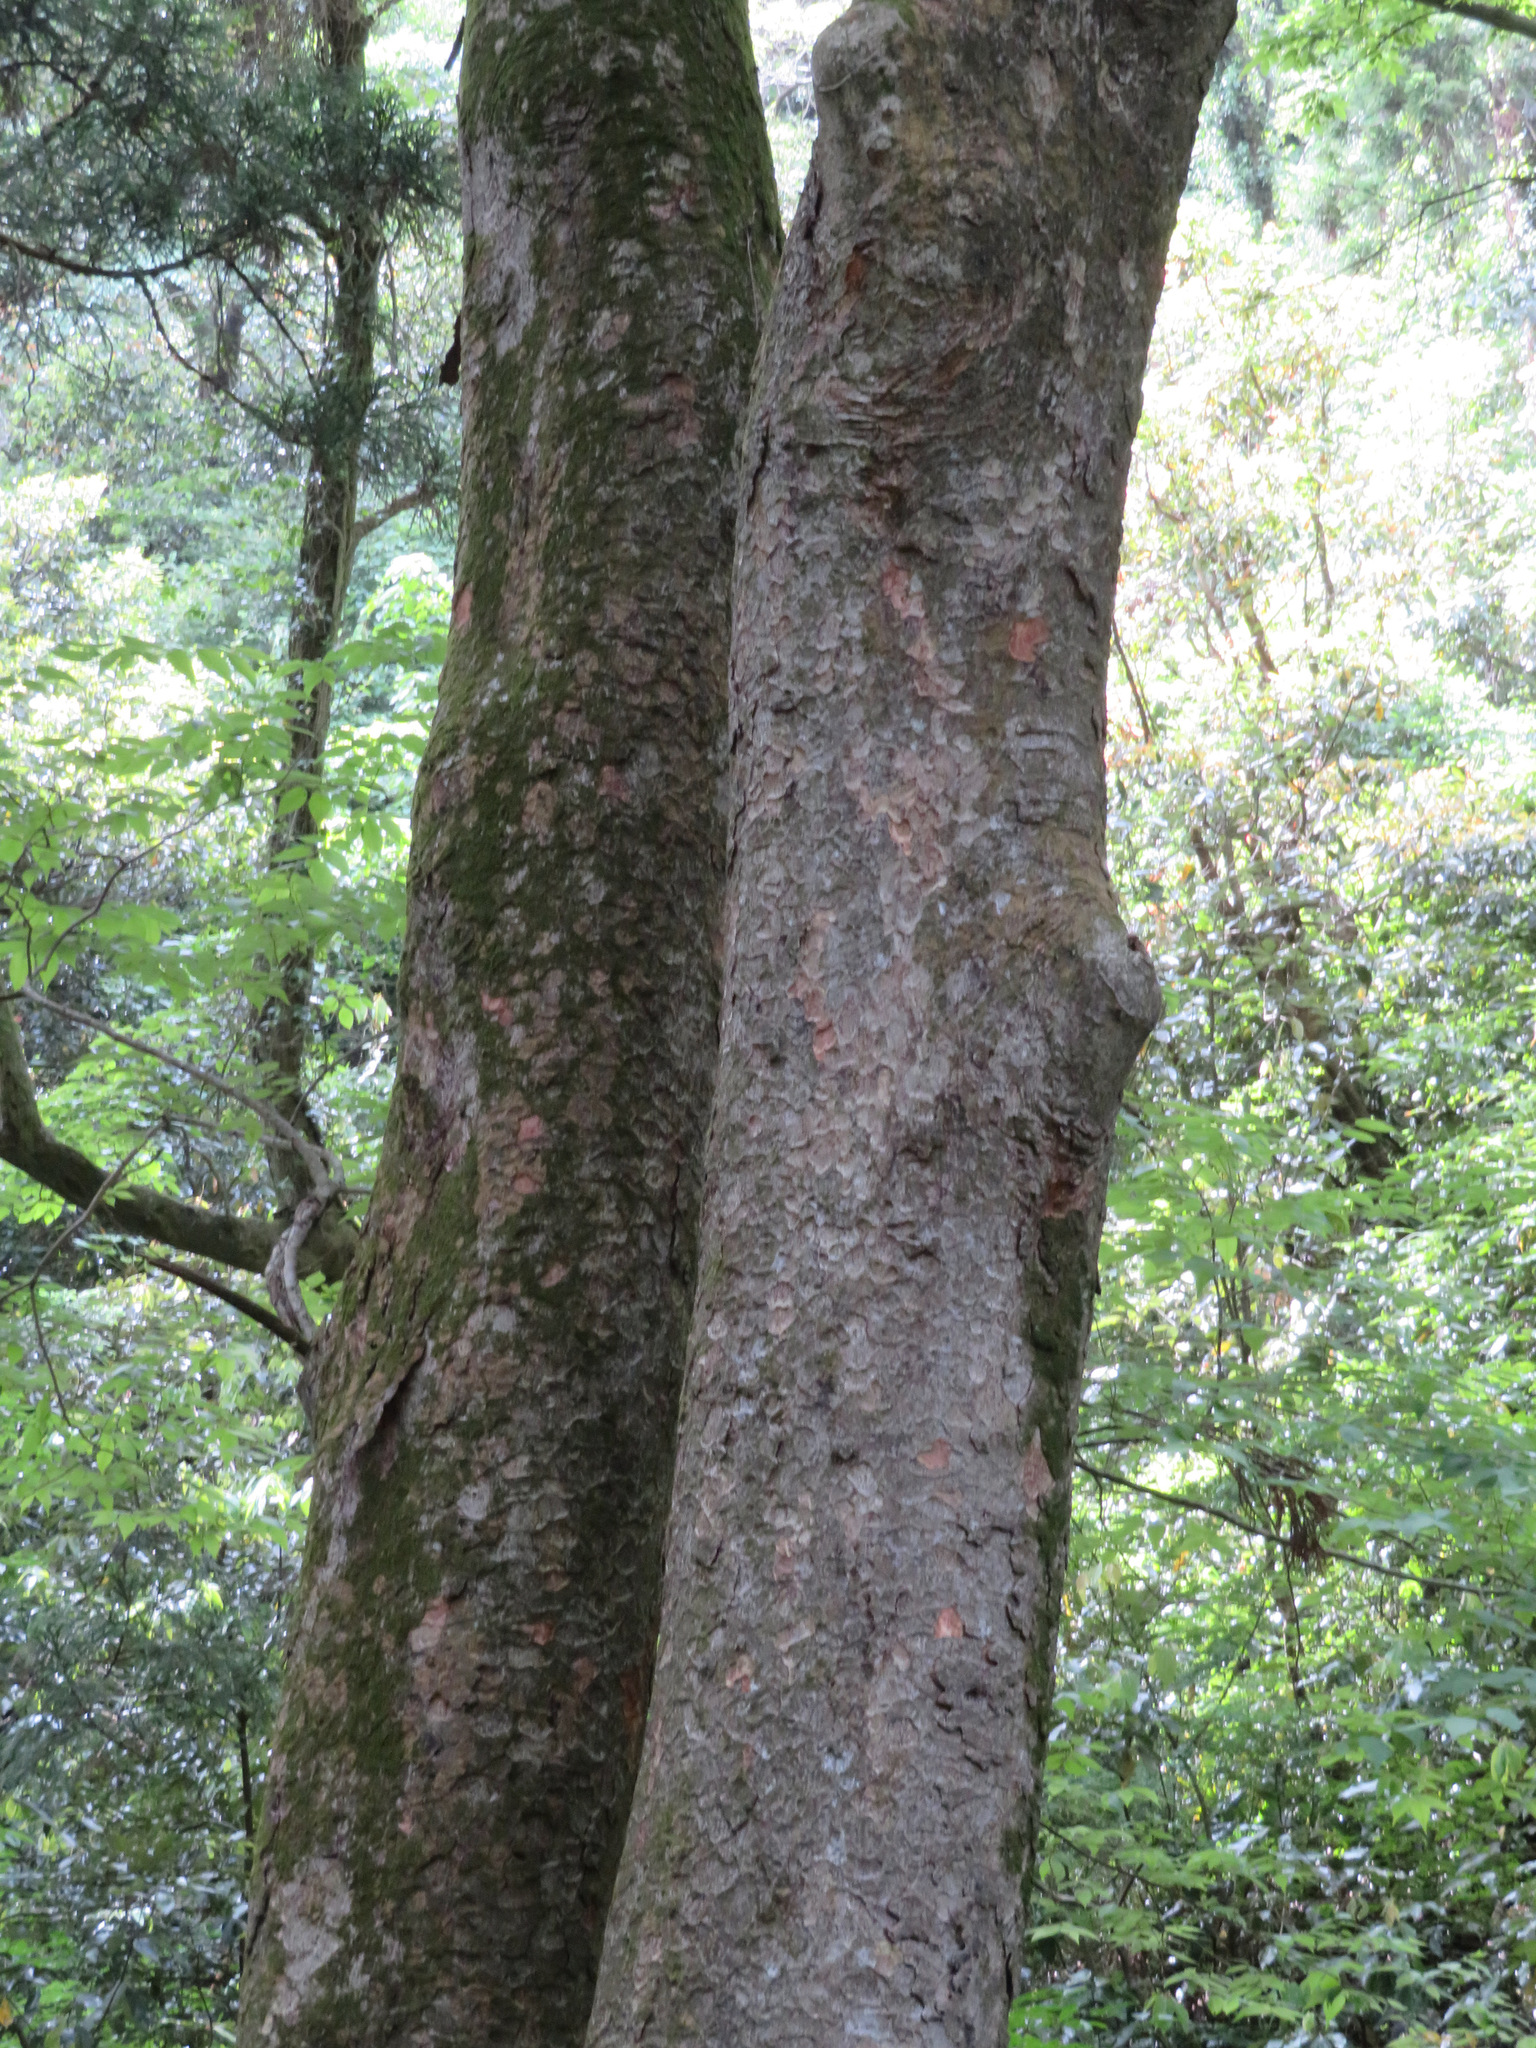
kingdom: Plantae
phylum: Tracheophyta
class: Magnoliopsida
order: Rosales
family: Ulmaceae
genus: Zelkova
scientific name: Zelkova serrata
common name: Japanese zelkova
